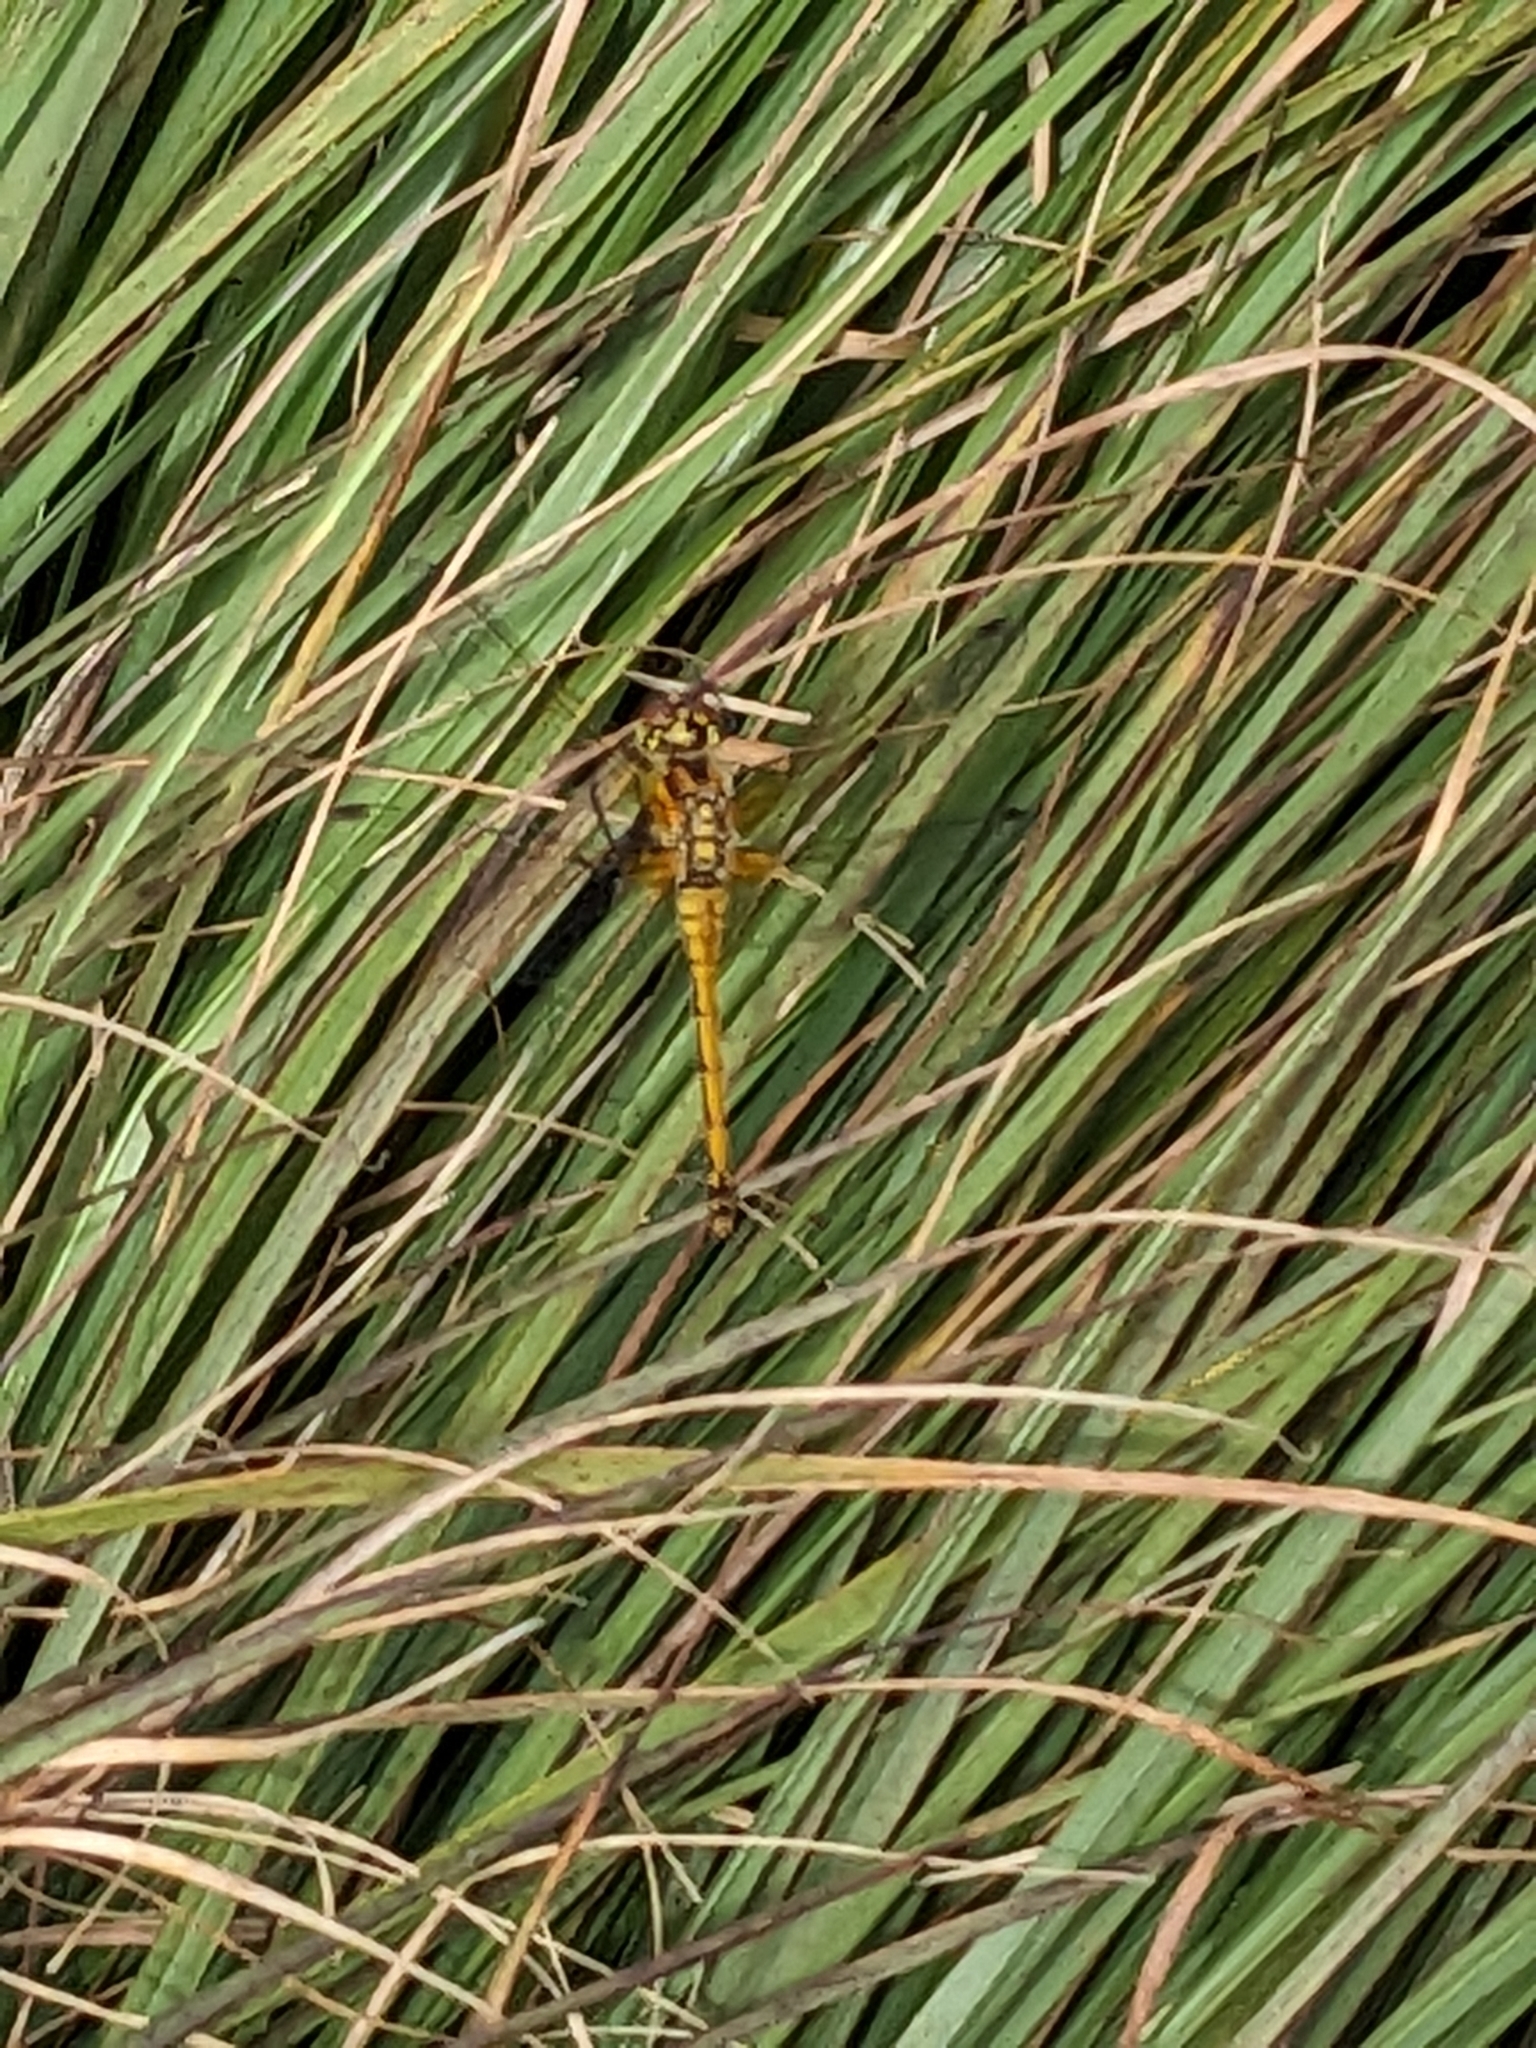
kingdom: Animalia
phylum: Arthropoda
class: Insecta
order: Odonata
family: Libellulidae
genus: Sympetrum
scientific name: Sympetrum danae
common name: Black darter
